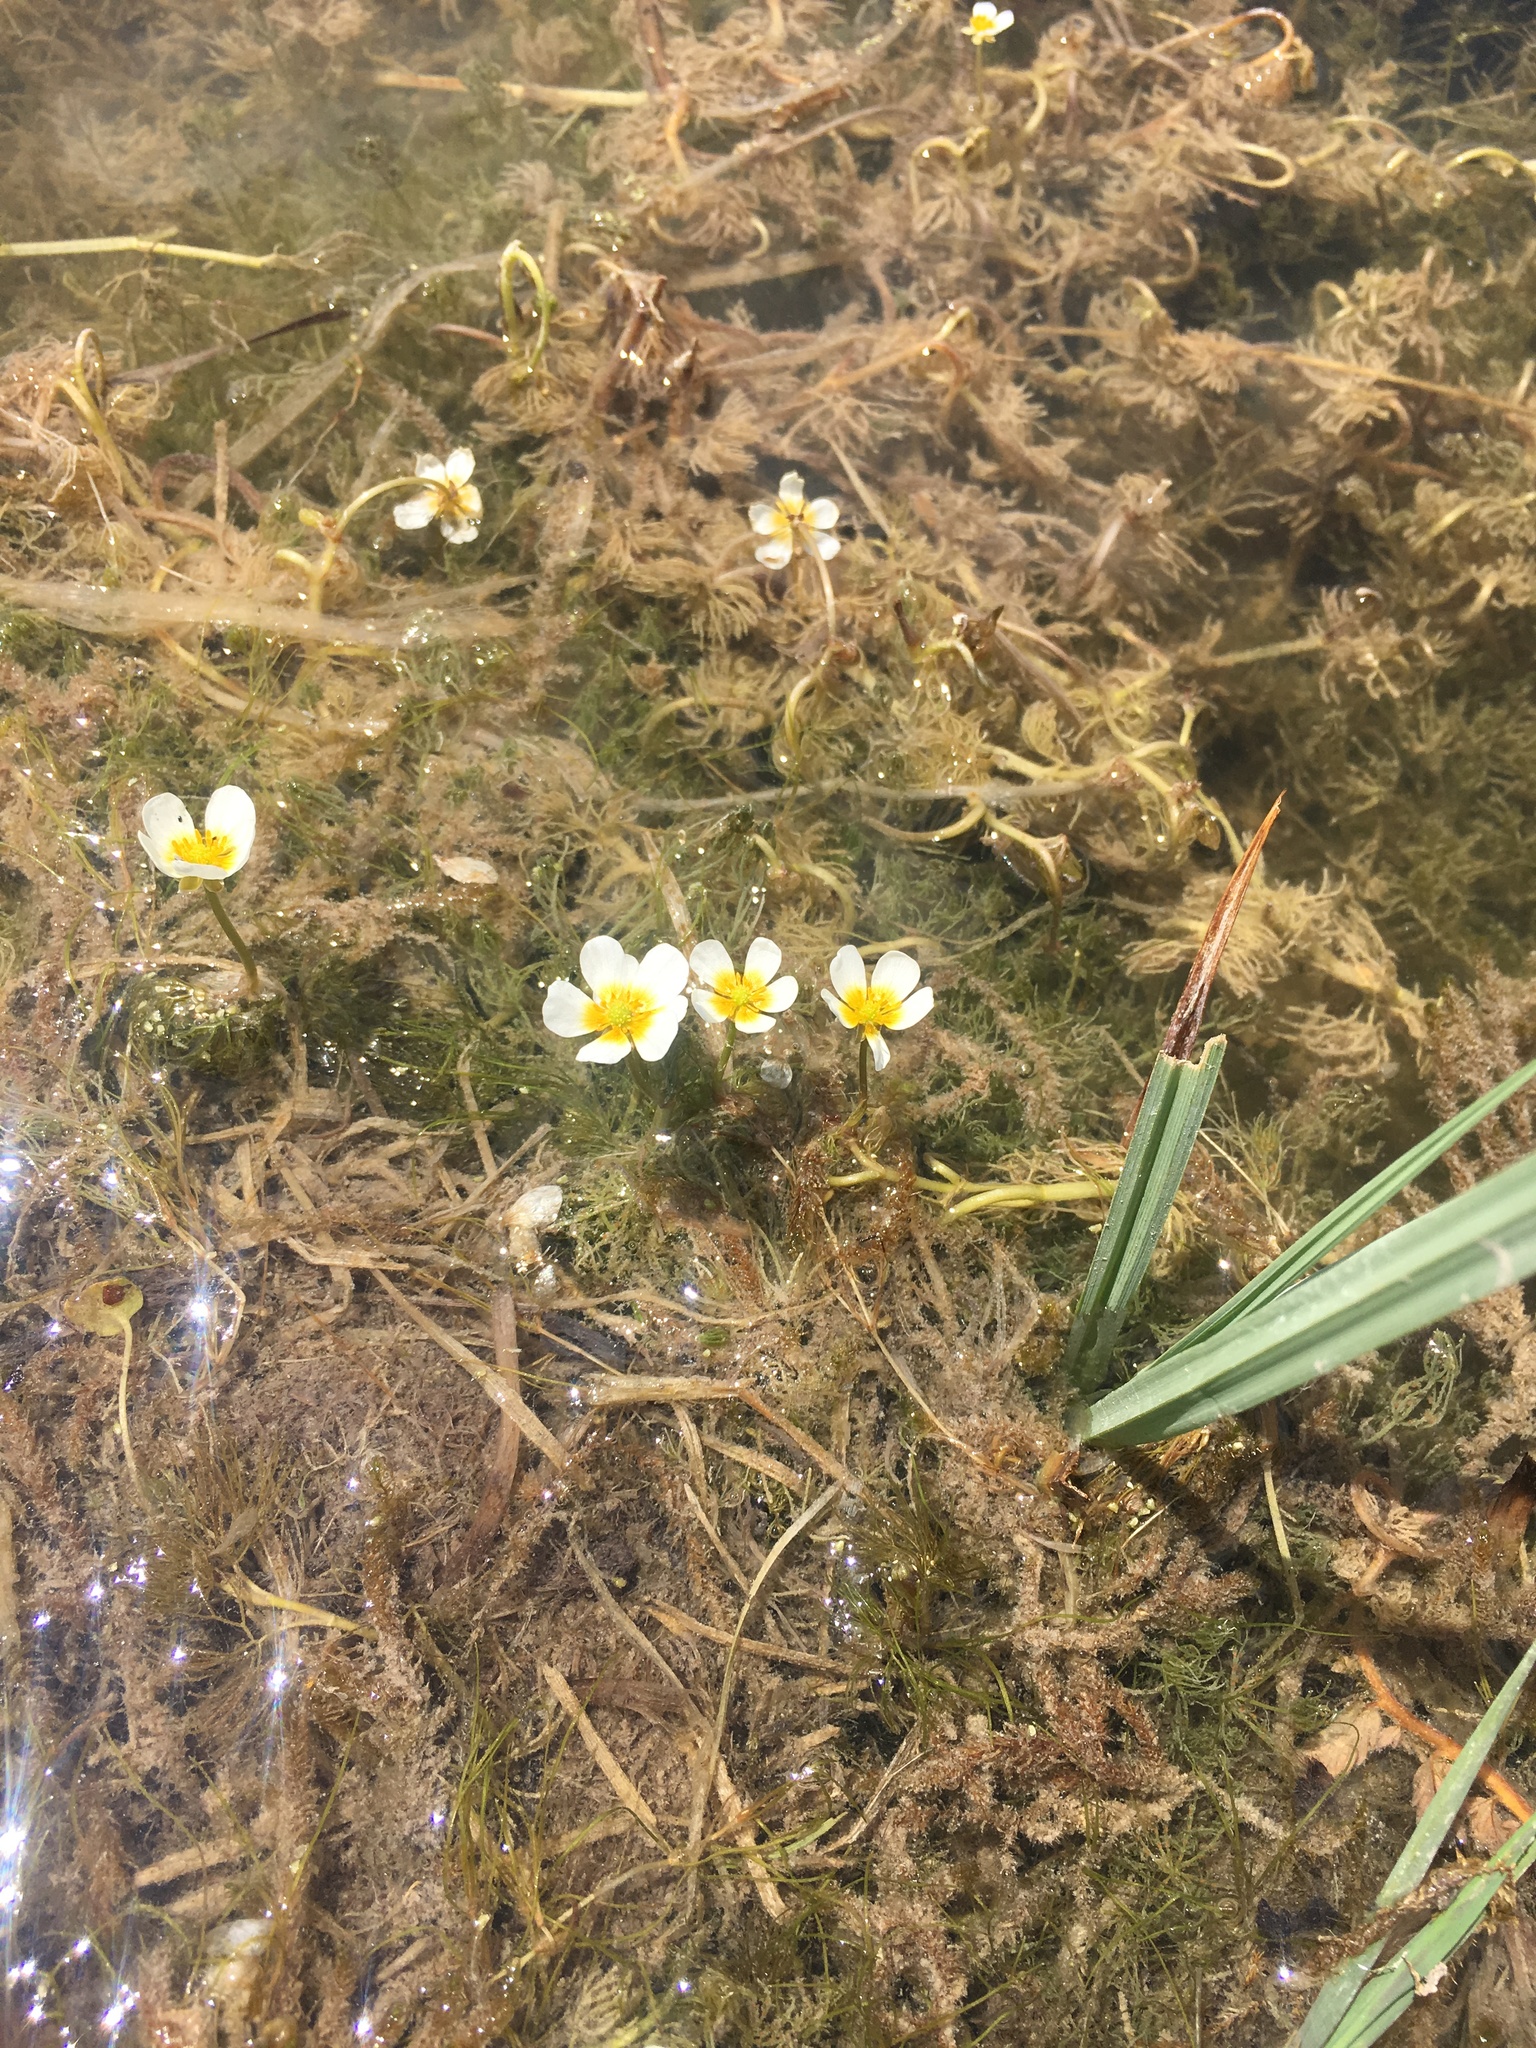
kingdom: Plantae
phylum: Tracheophyta
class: Magnoliopsida
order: Ranunculales
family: Ranunculaceae
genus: Ranunculus
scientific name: Ranunculus aquatilis
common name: Common water-crowfoot
